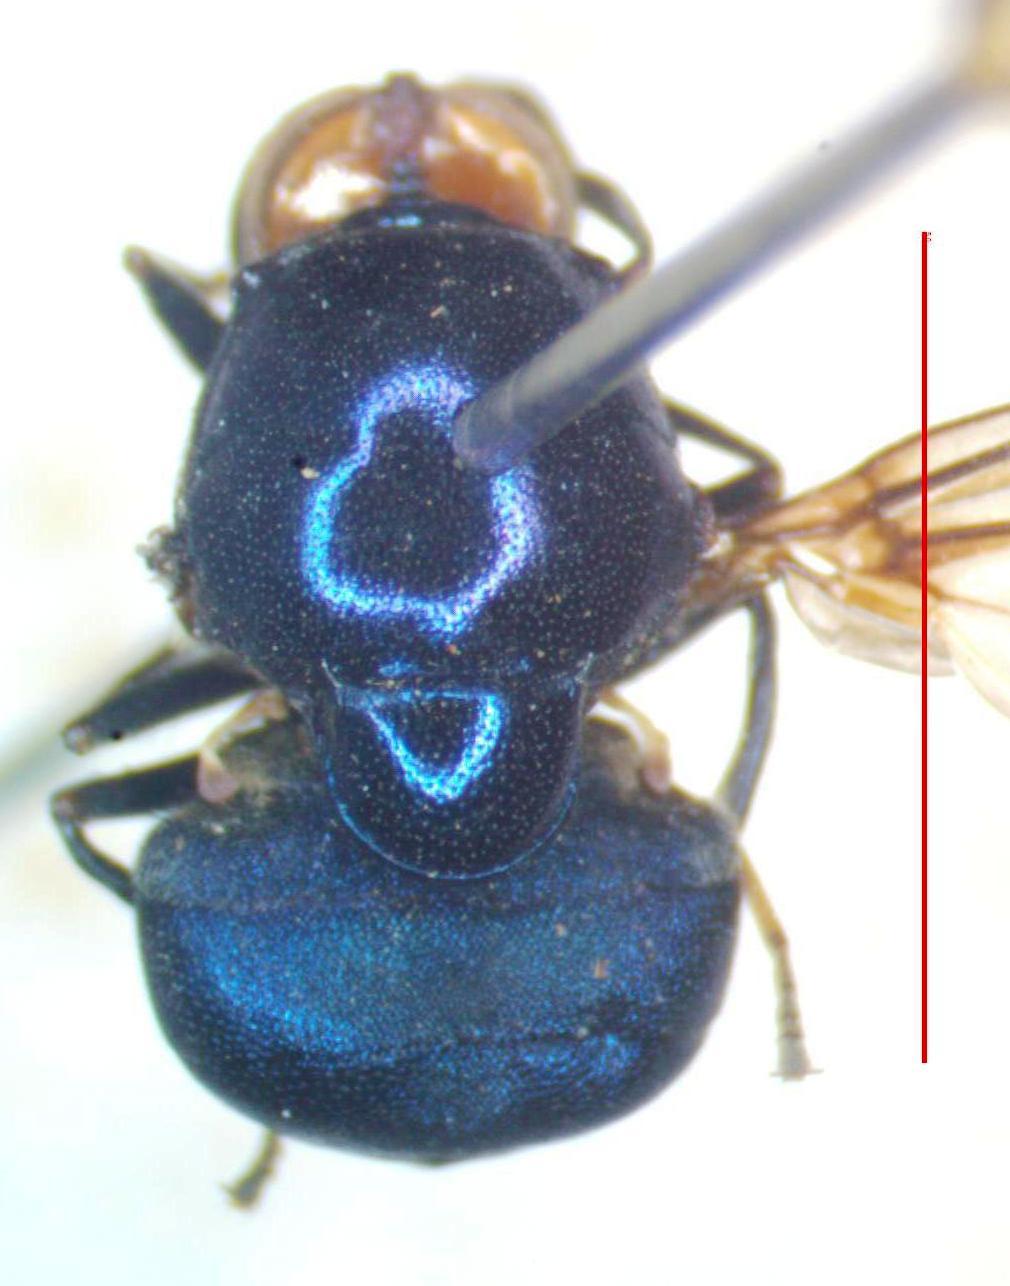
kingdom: Animalia
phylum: Arthropoda
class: Insecta
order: Diptera
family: Stratiomyidae
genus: Panacris
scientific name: Panacris microdonta
